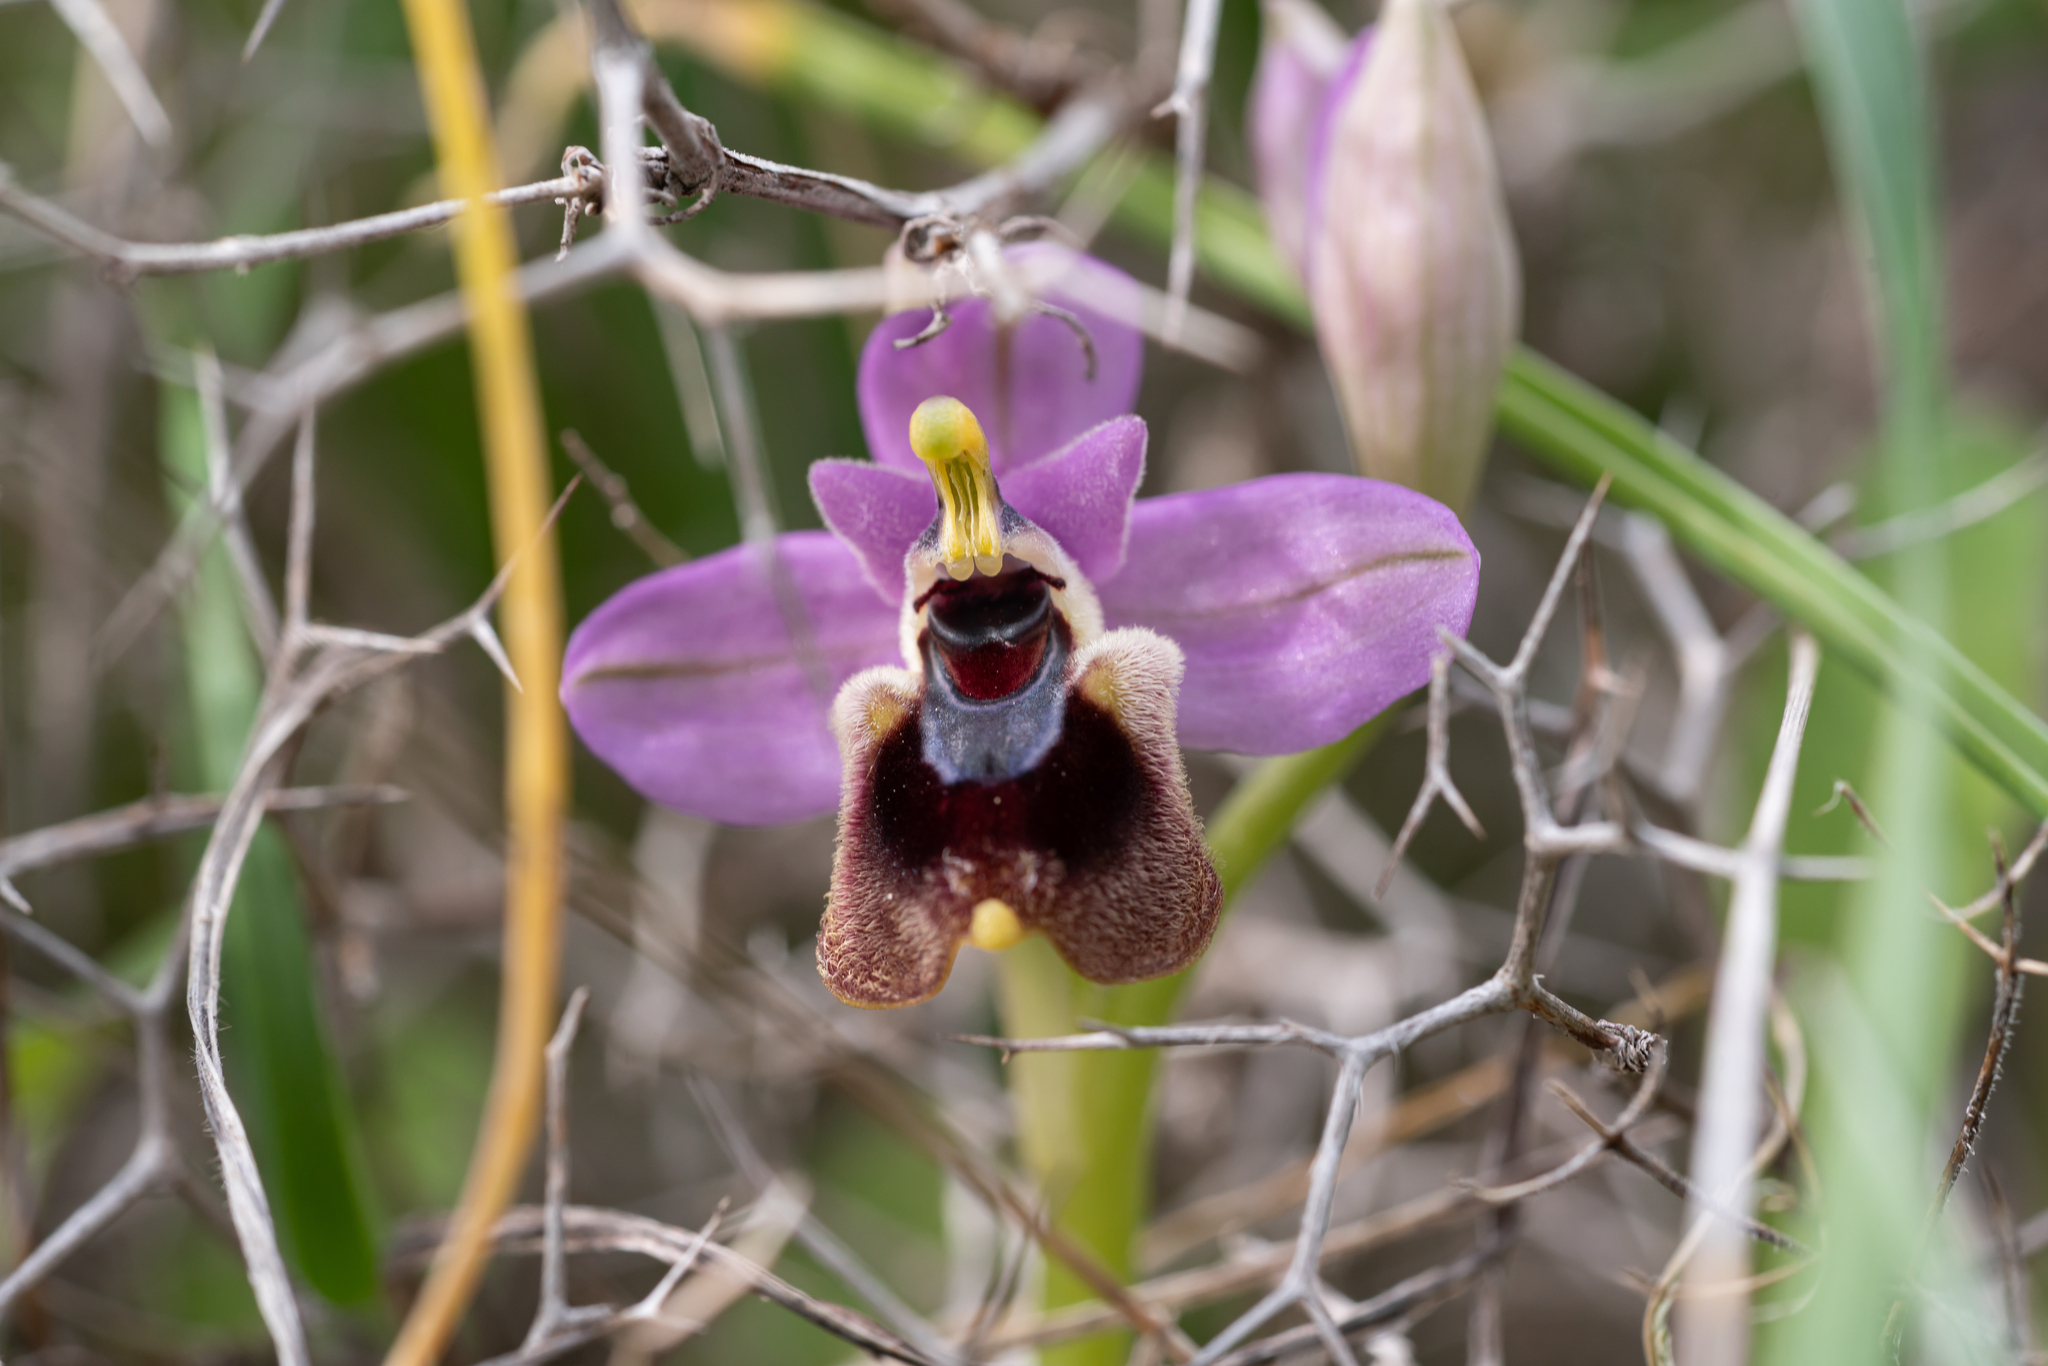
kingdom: Plantae
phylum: Tracheophyta
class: Liliopsida
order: Asparagales
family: Orchidaceae
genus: Ophrys
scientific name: Ophrys tenthredinifera
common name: Sawfly orchid
